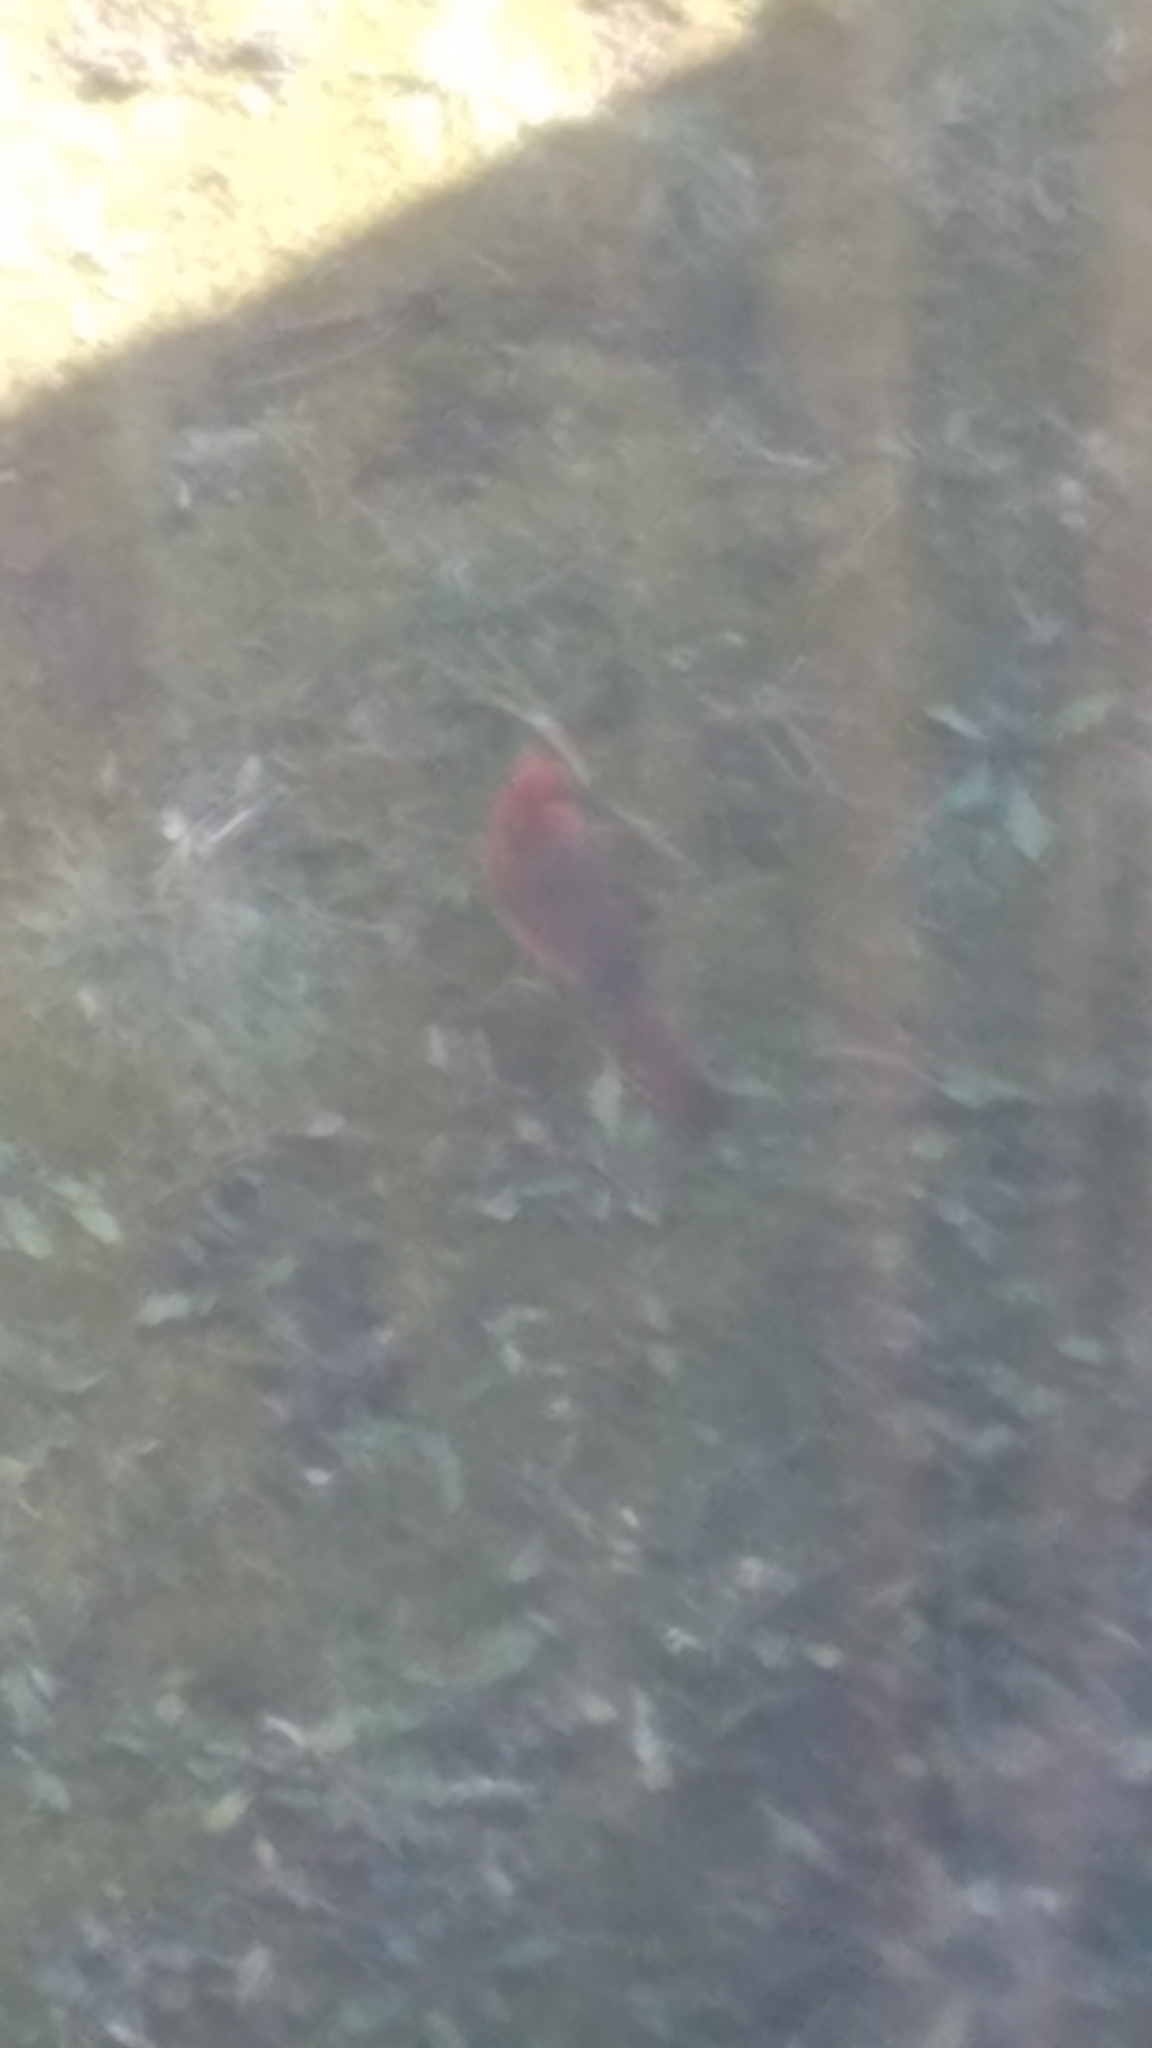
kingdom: Animalia
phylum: Chordata
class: Aves
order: Passeriformes
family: Cardinalidae
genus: Cardinalis
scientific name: Cardinalis cardinalis
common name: Northern cardinal
